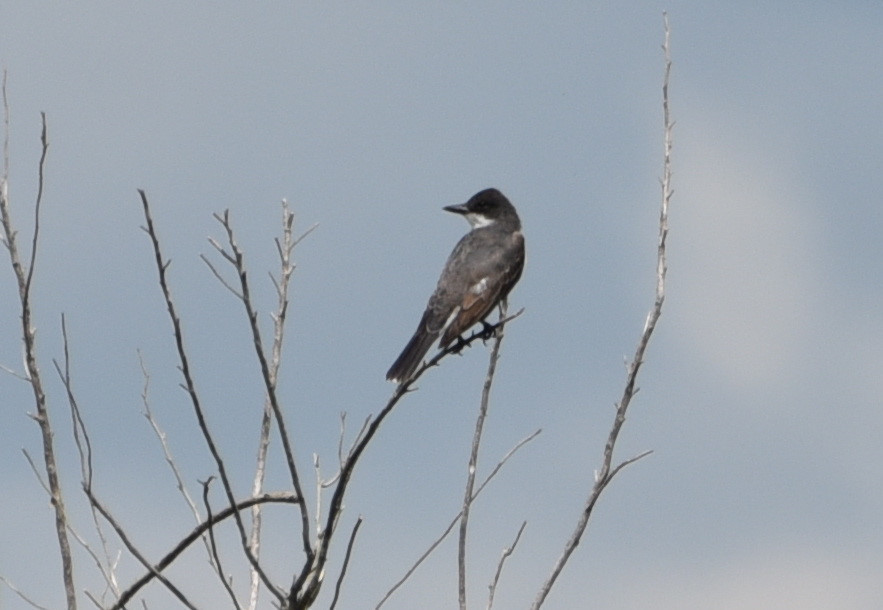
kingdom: Animalia
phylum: Chordata
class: Aves
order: Passeriformes
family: Tyrannidae
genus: Tyrannus
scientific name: Tyrannus tyrannus
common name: Eastern kingbird
